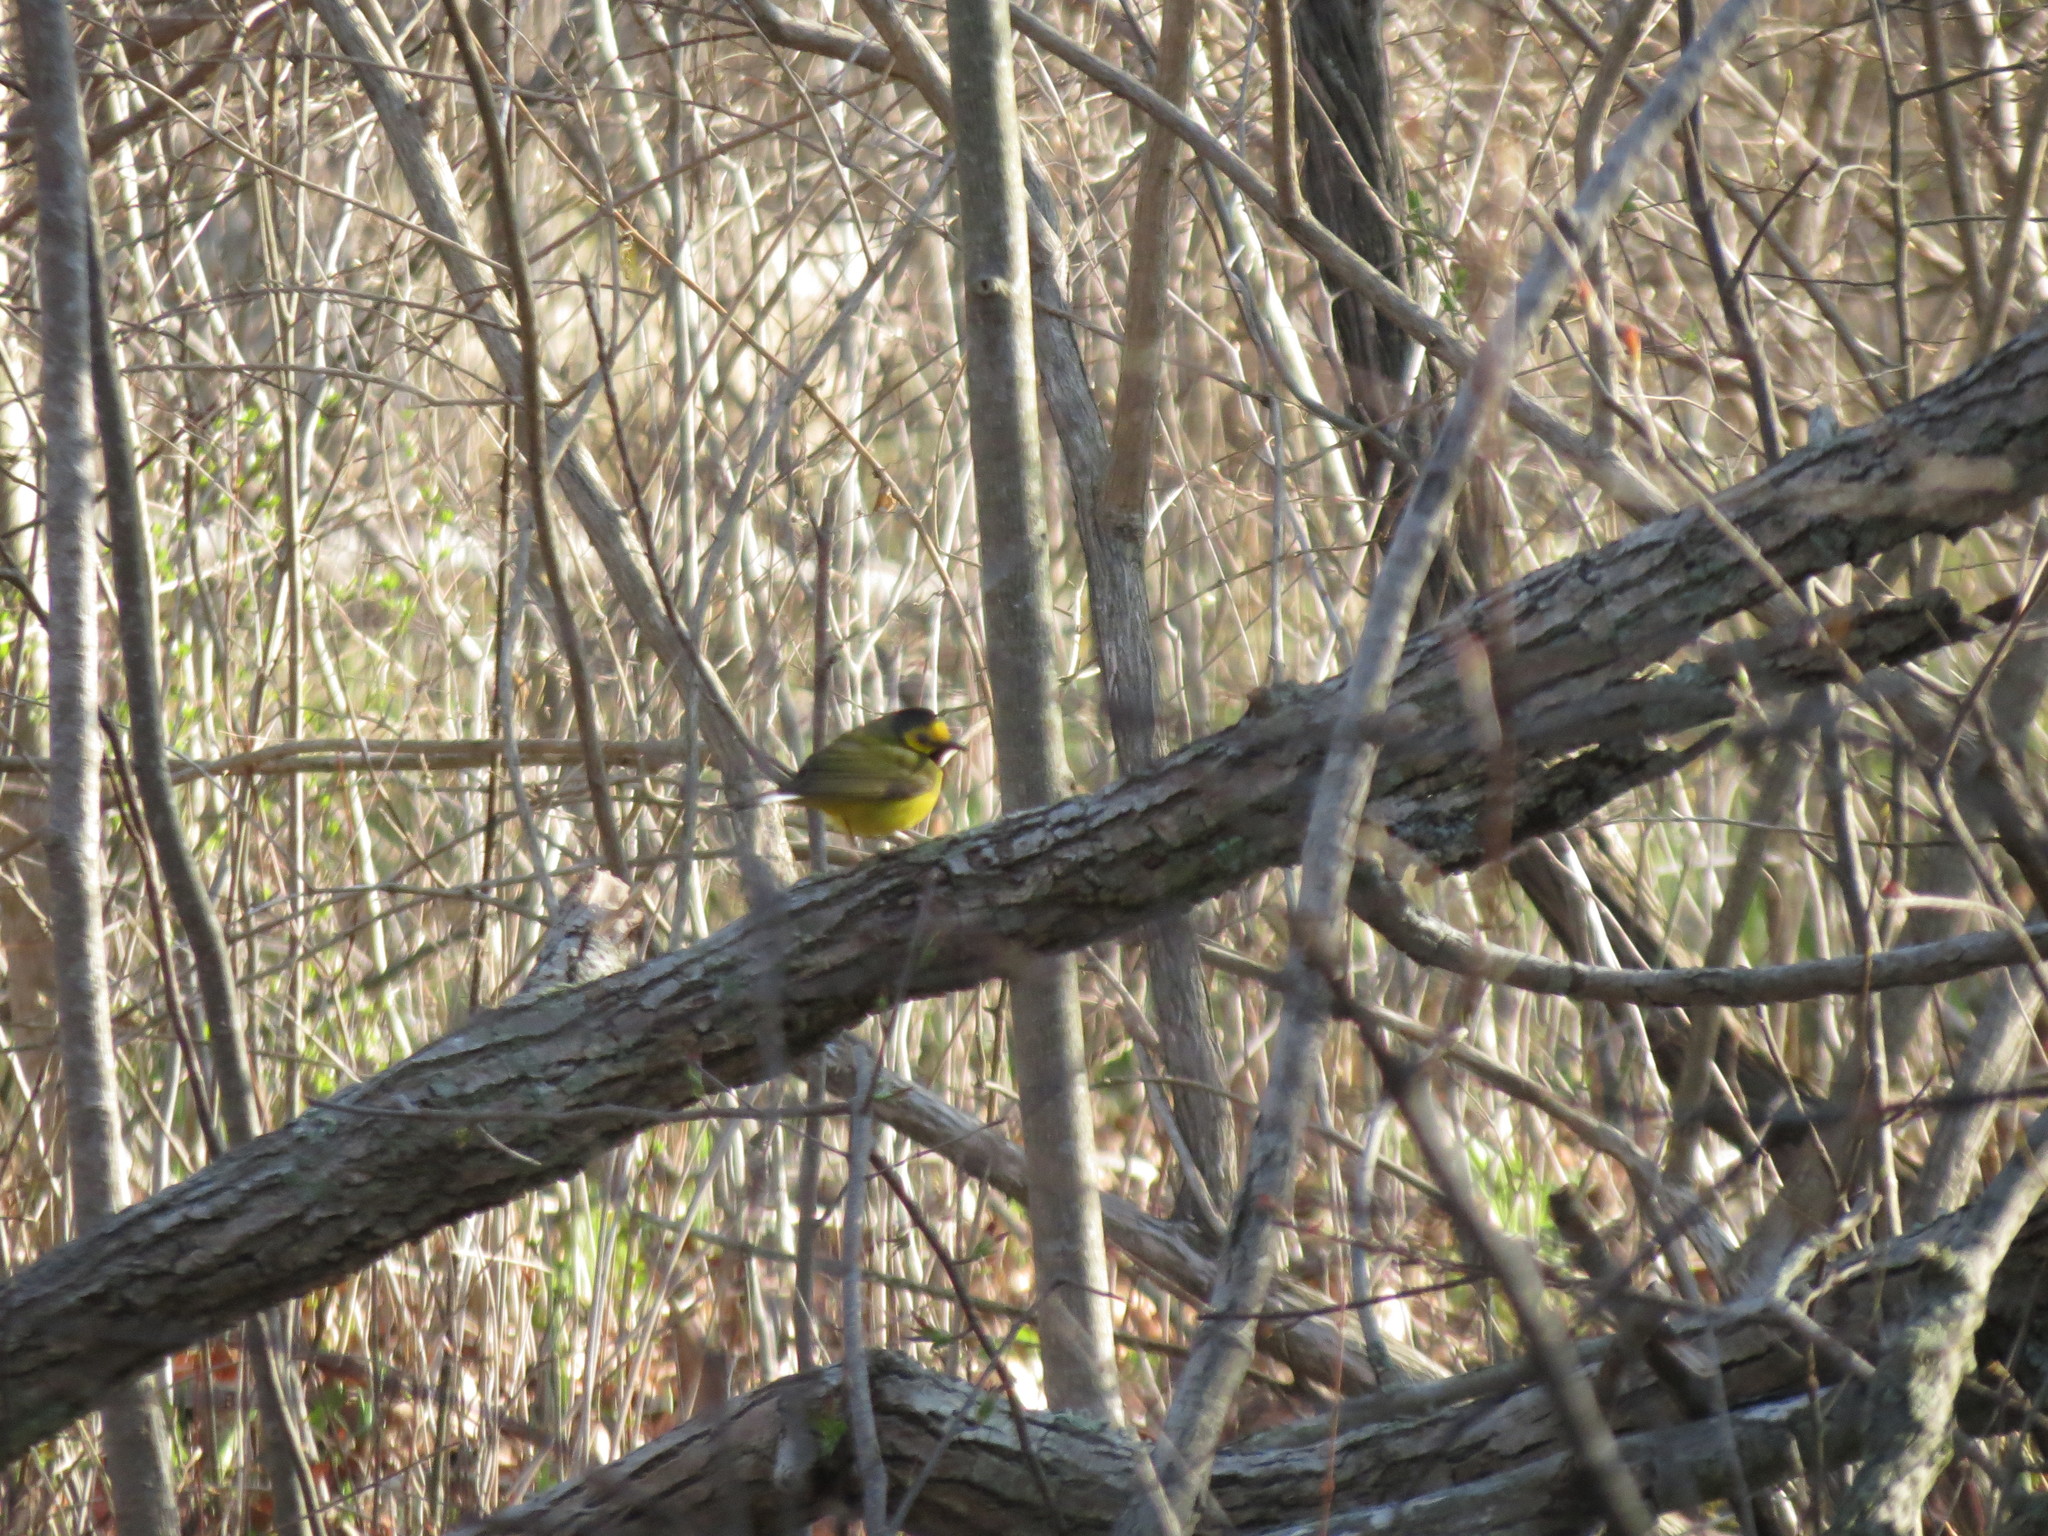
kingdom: Animalia
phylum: Chordata
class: Aves
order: Passeriformes
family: Parulidae
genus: Setophaga
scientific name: Setophaga citrina
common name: Hooded warbler
